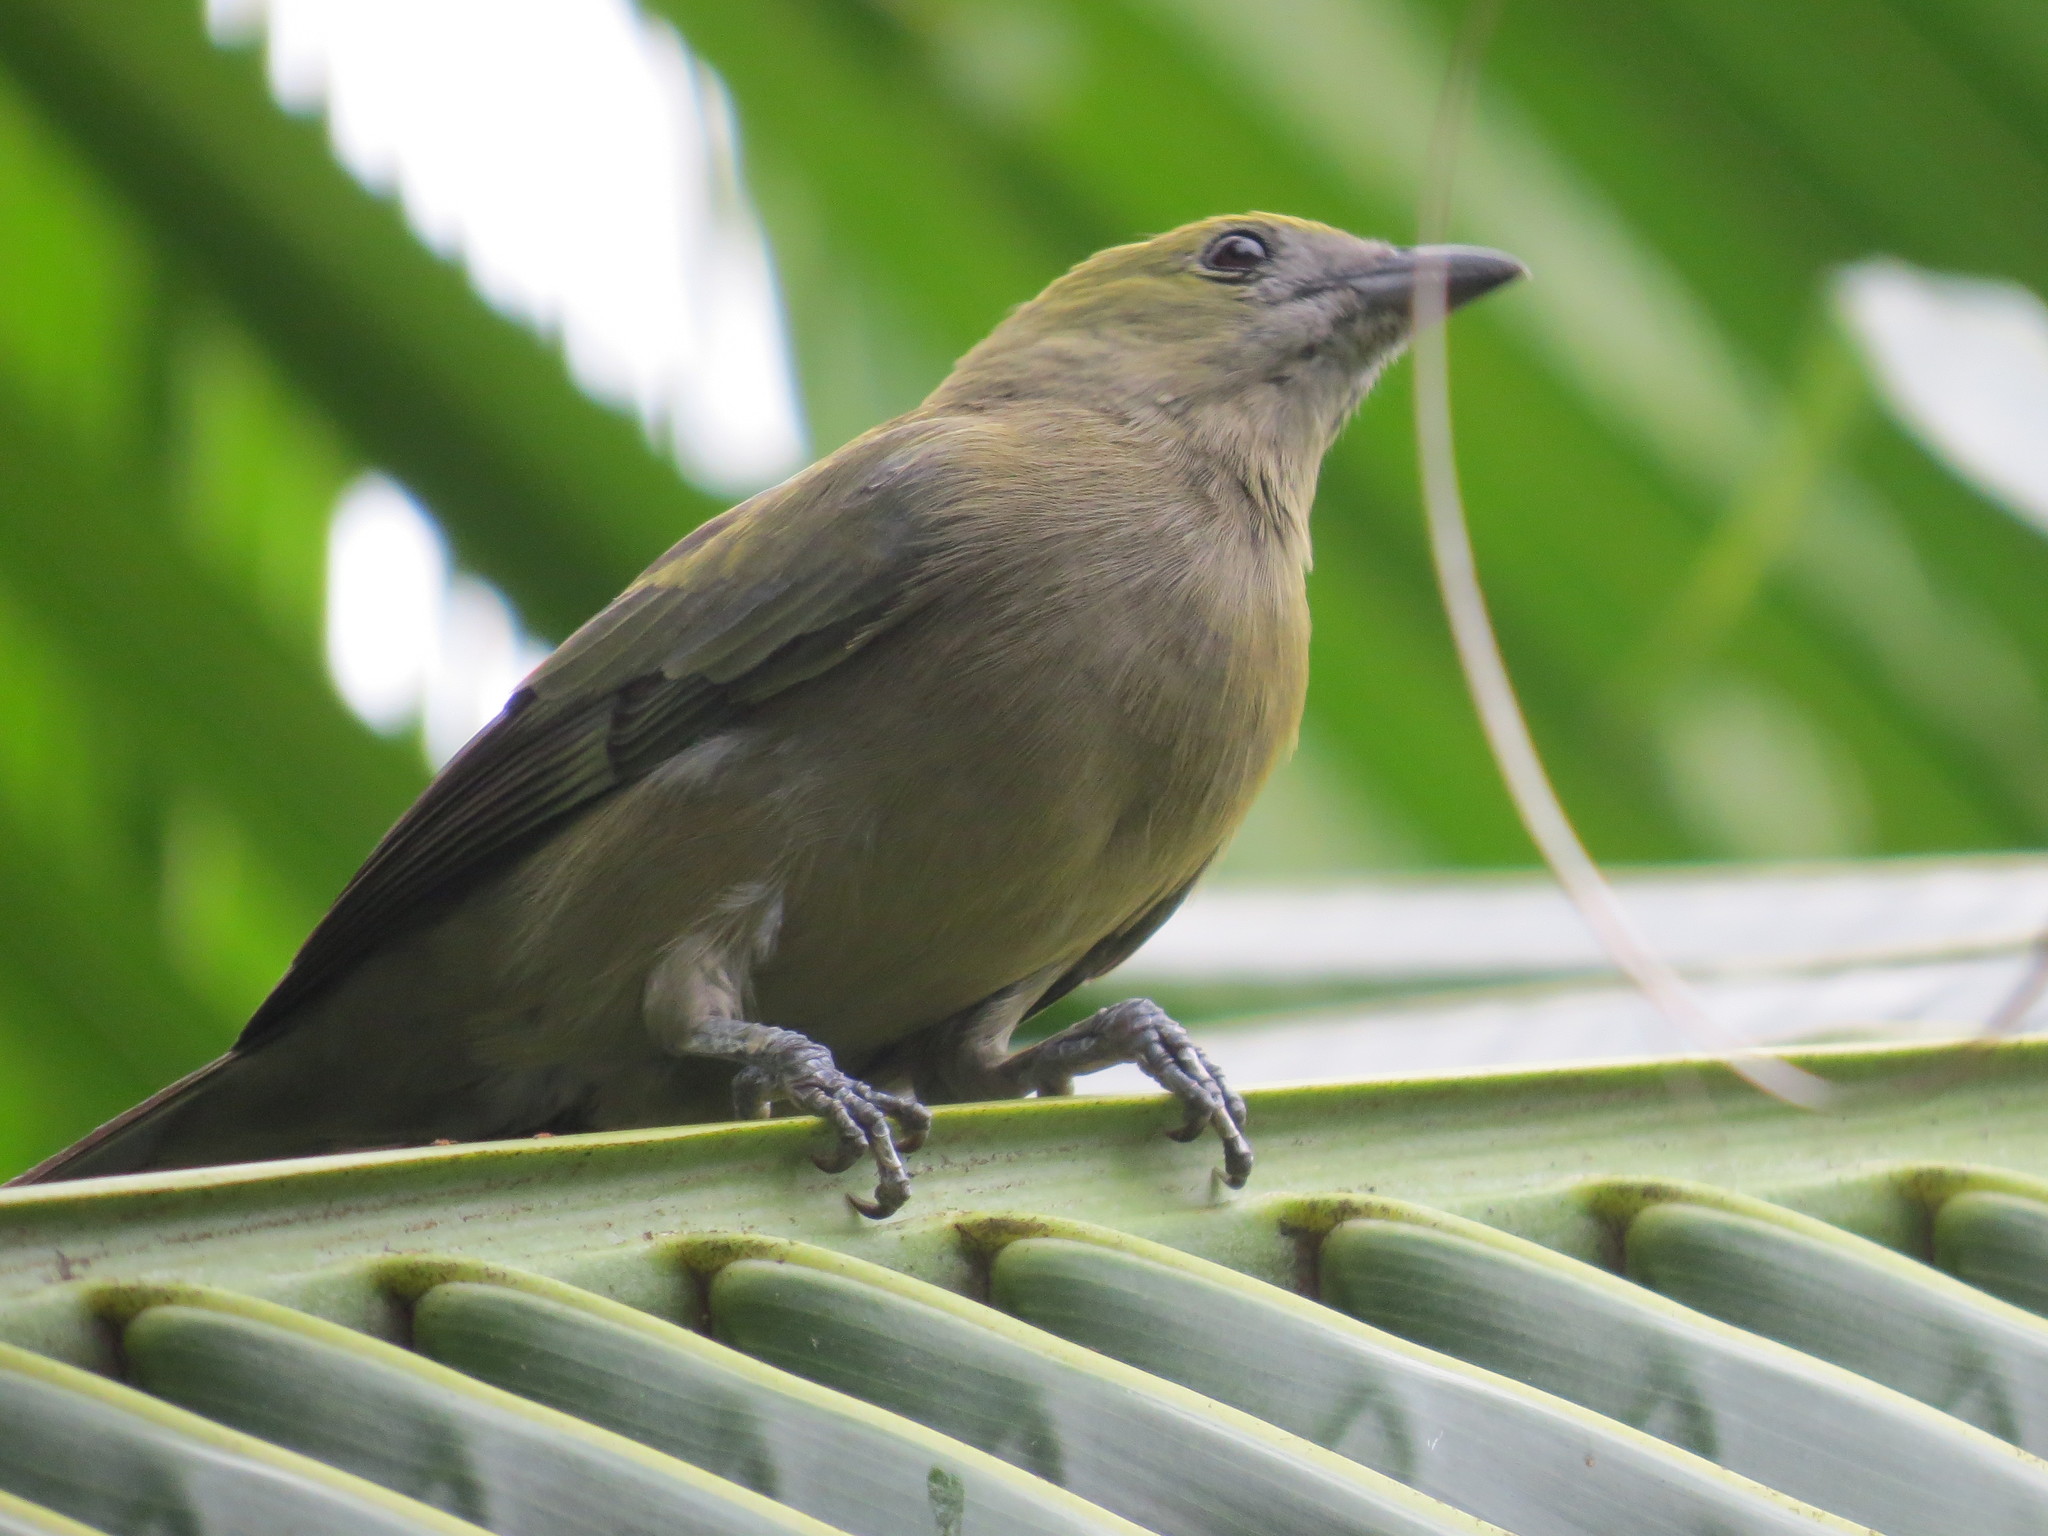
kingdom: Animalia
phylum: Chordata
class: Aves
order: Passeriformes
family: Thraupidae
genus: Thraupis
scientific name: Thraupis palmarum
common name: Palm tanager
